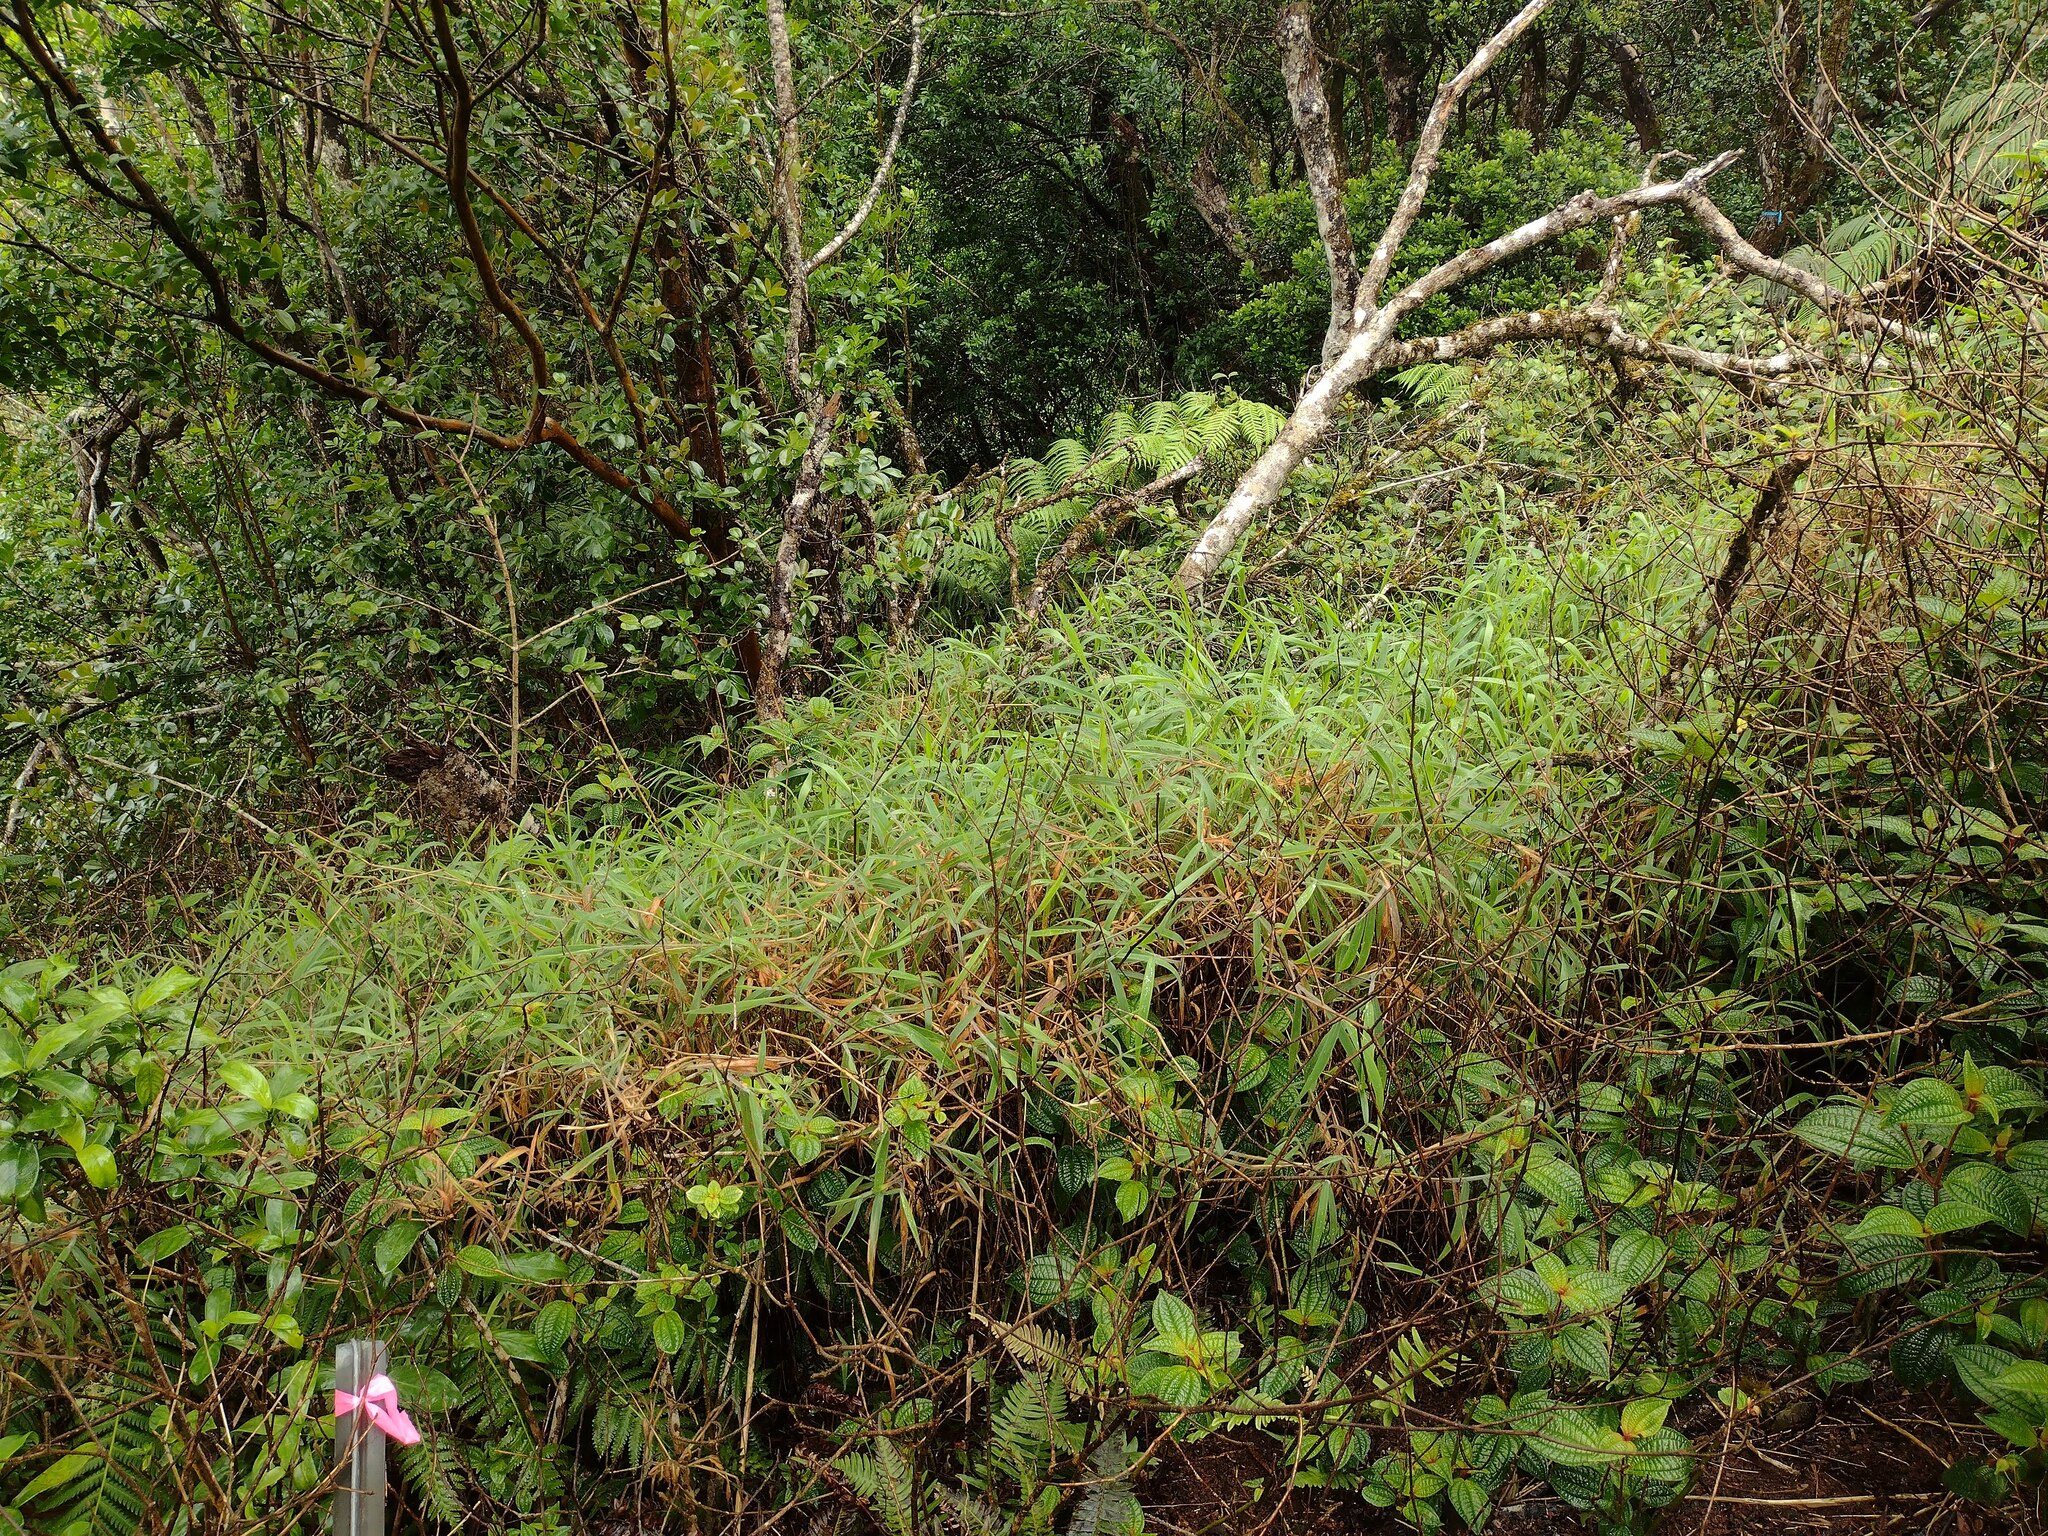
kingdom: Plantae
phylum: Tracheophyta
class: Liliopsida
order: Poales
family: Poaceae
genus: Melinis
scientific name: Melinis minutiflora
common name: Molassesgrass
